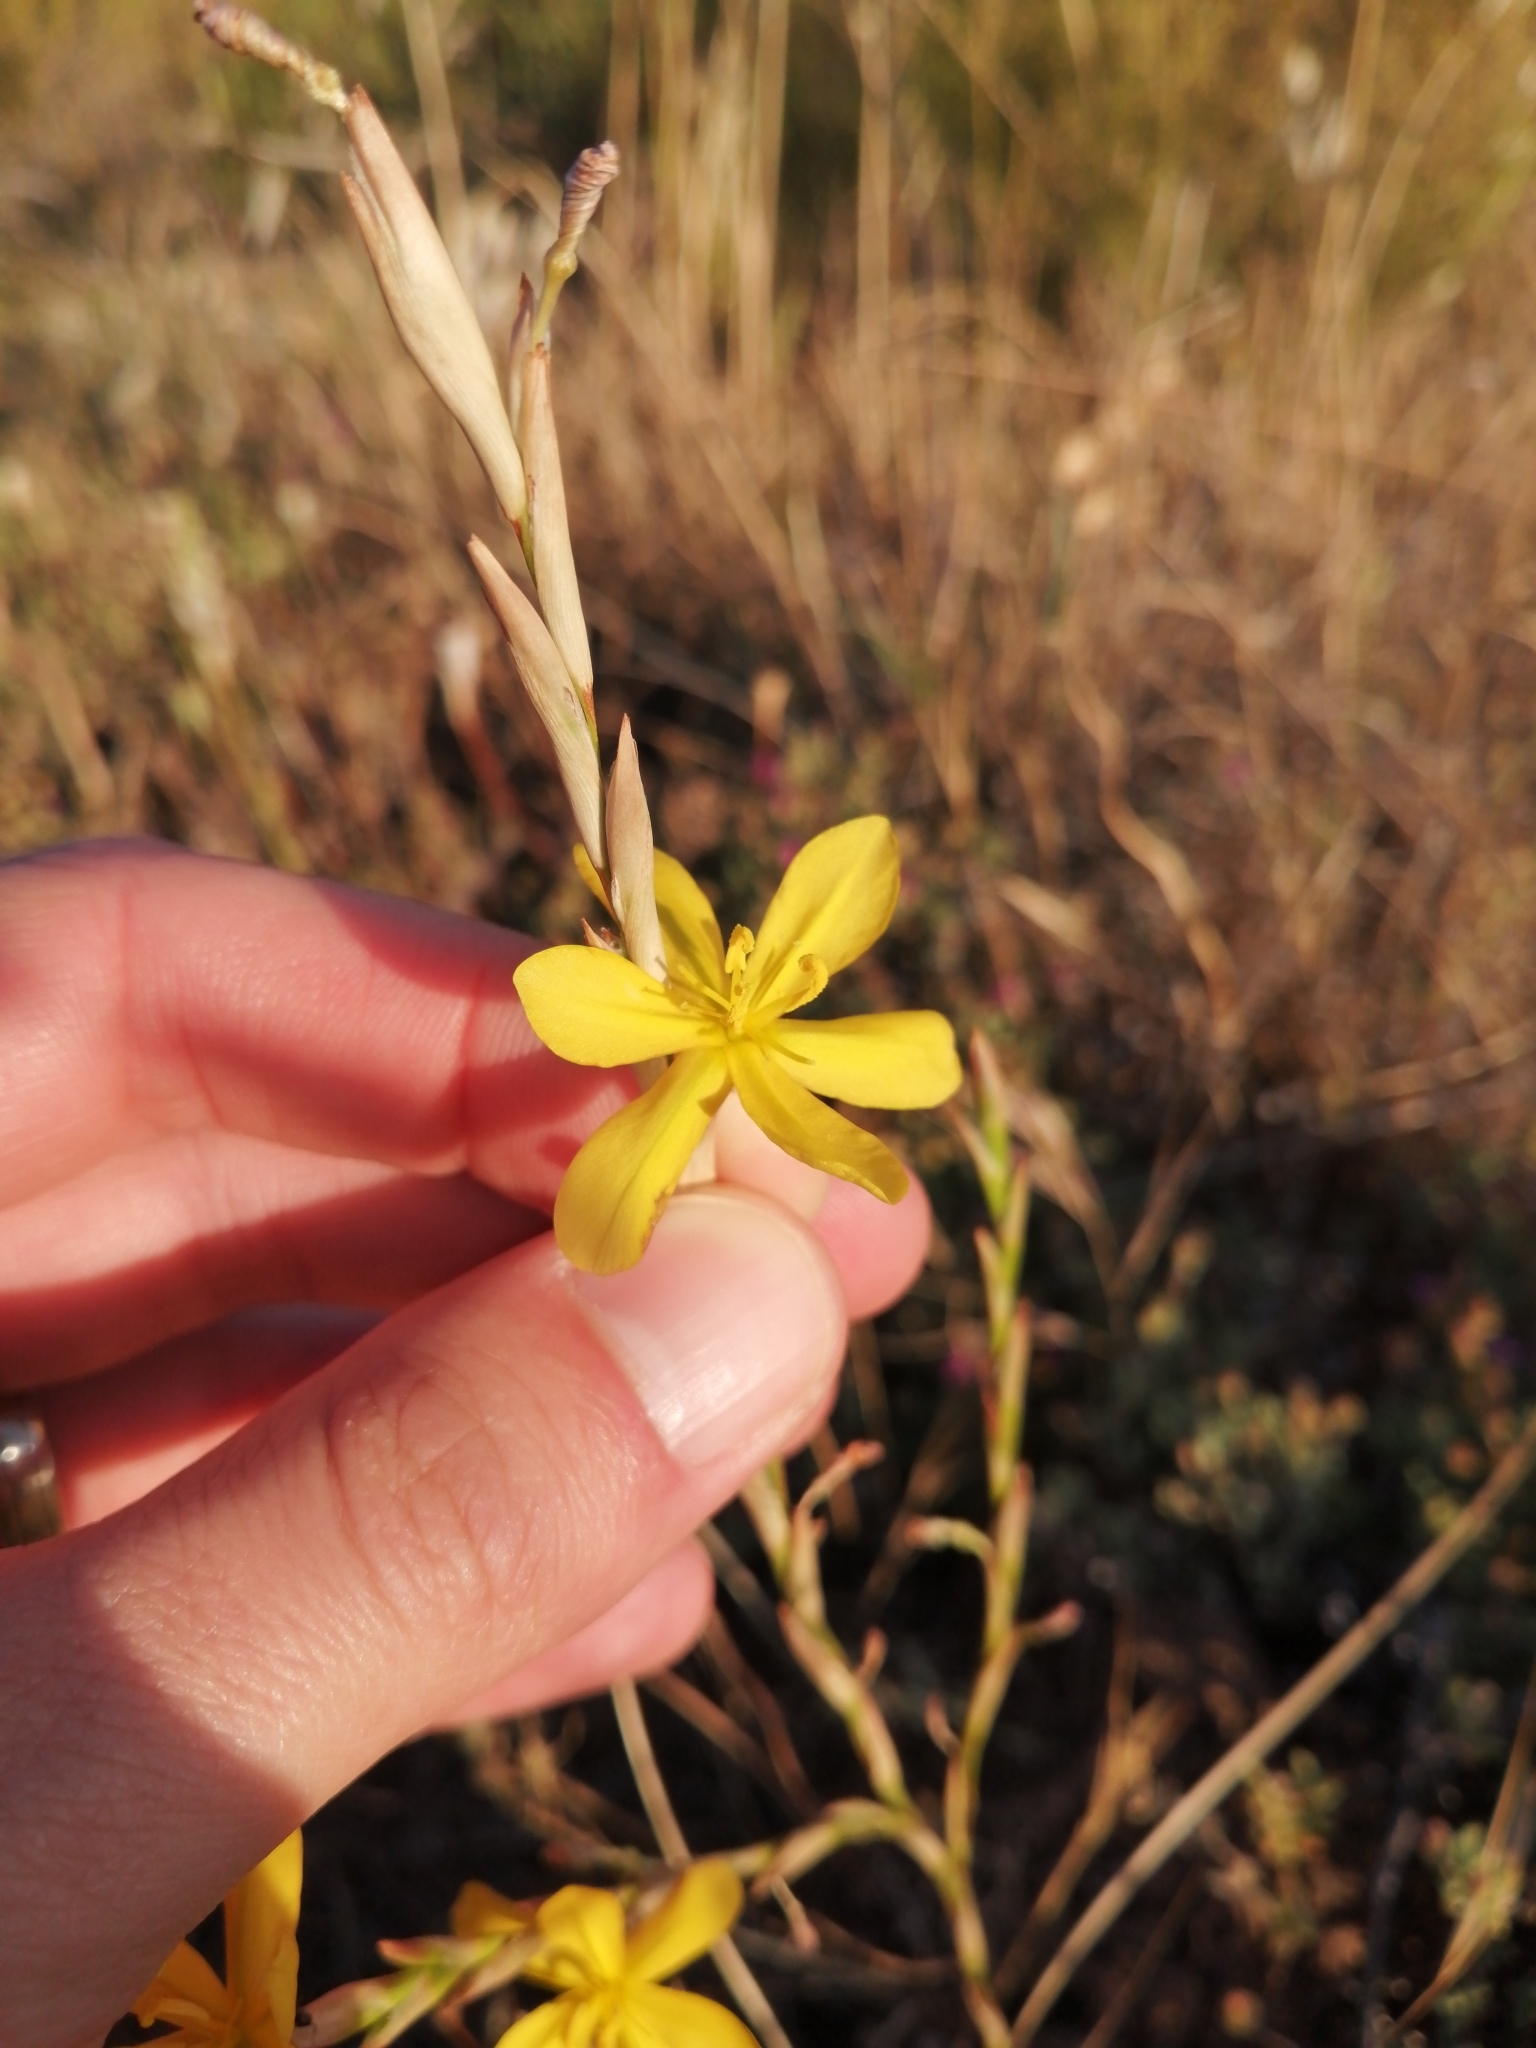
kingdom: Plantae
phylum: Tracheophyta
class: Liliopsida
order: Asparagales
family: Iridaceae
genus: Moraea
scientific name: Moraea virgata
